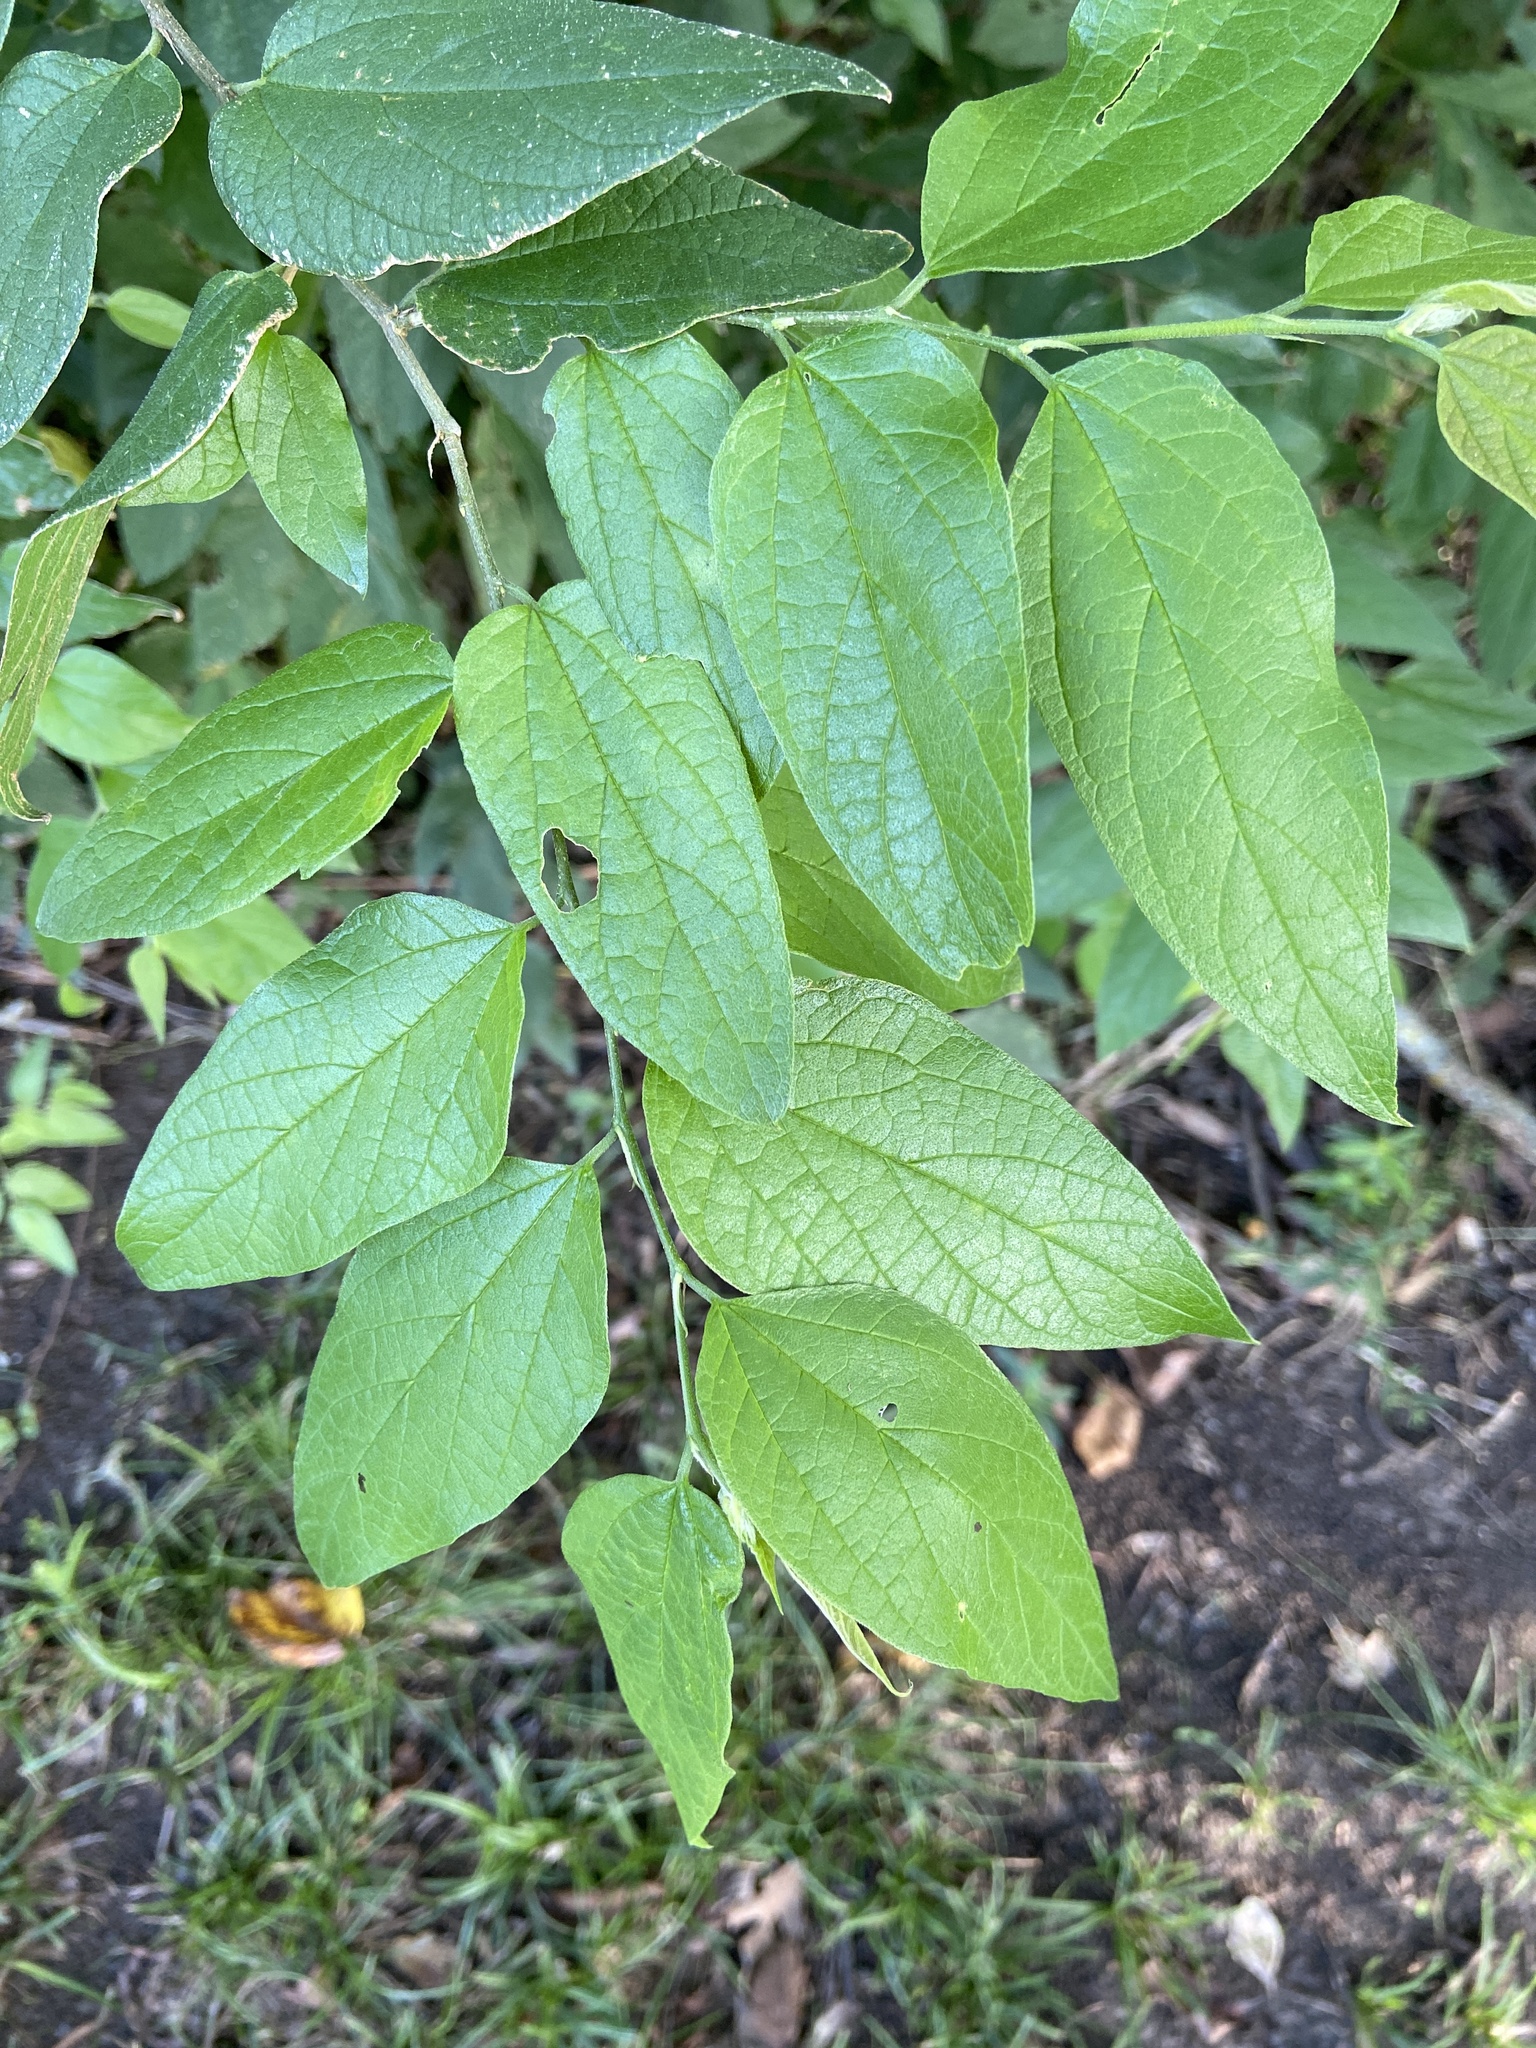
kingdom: Plantae
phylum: Tracheophyta
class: Magnoliopsida
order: Rosales
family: Cannabaceae
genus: Celtis
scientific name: Celtis laevigata
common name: Sugarberry
